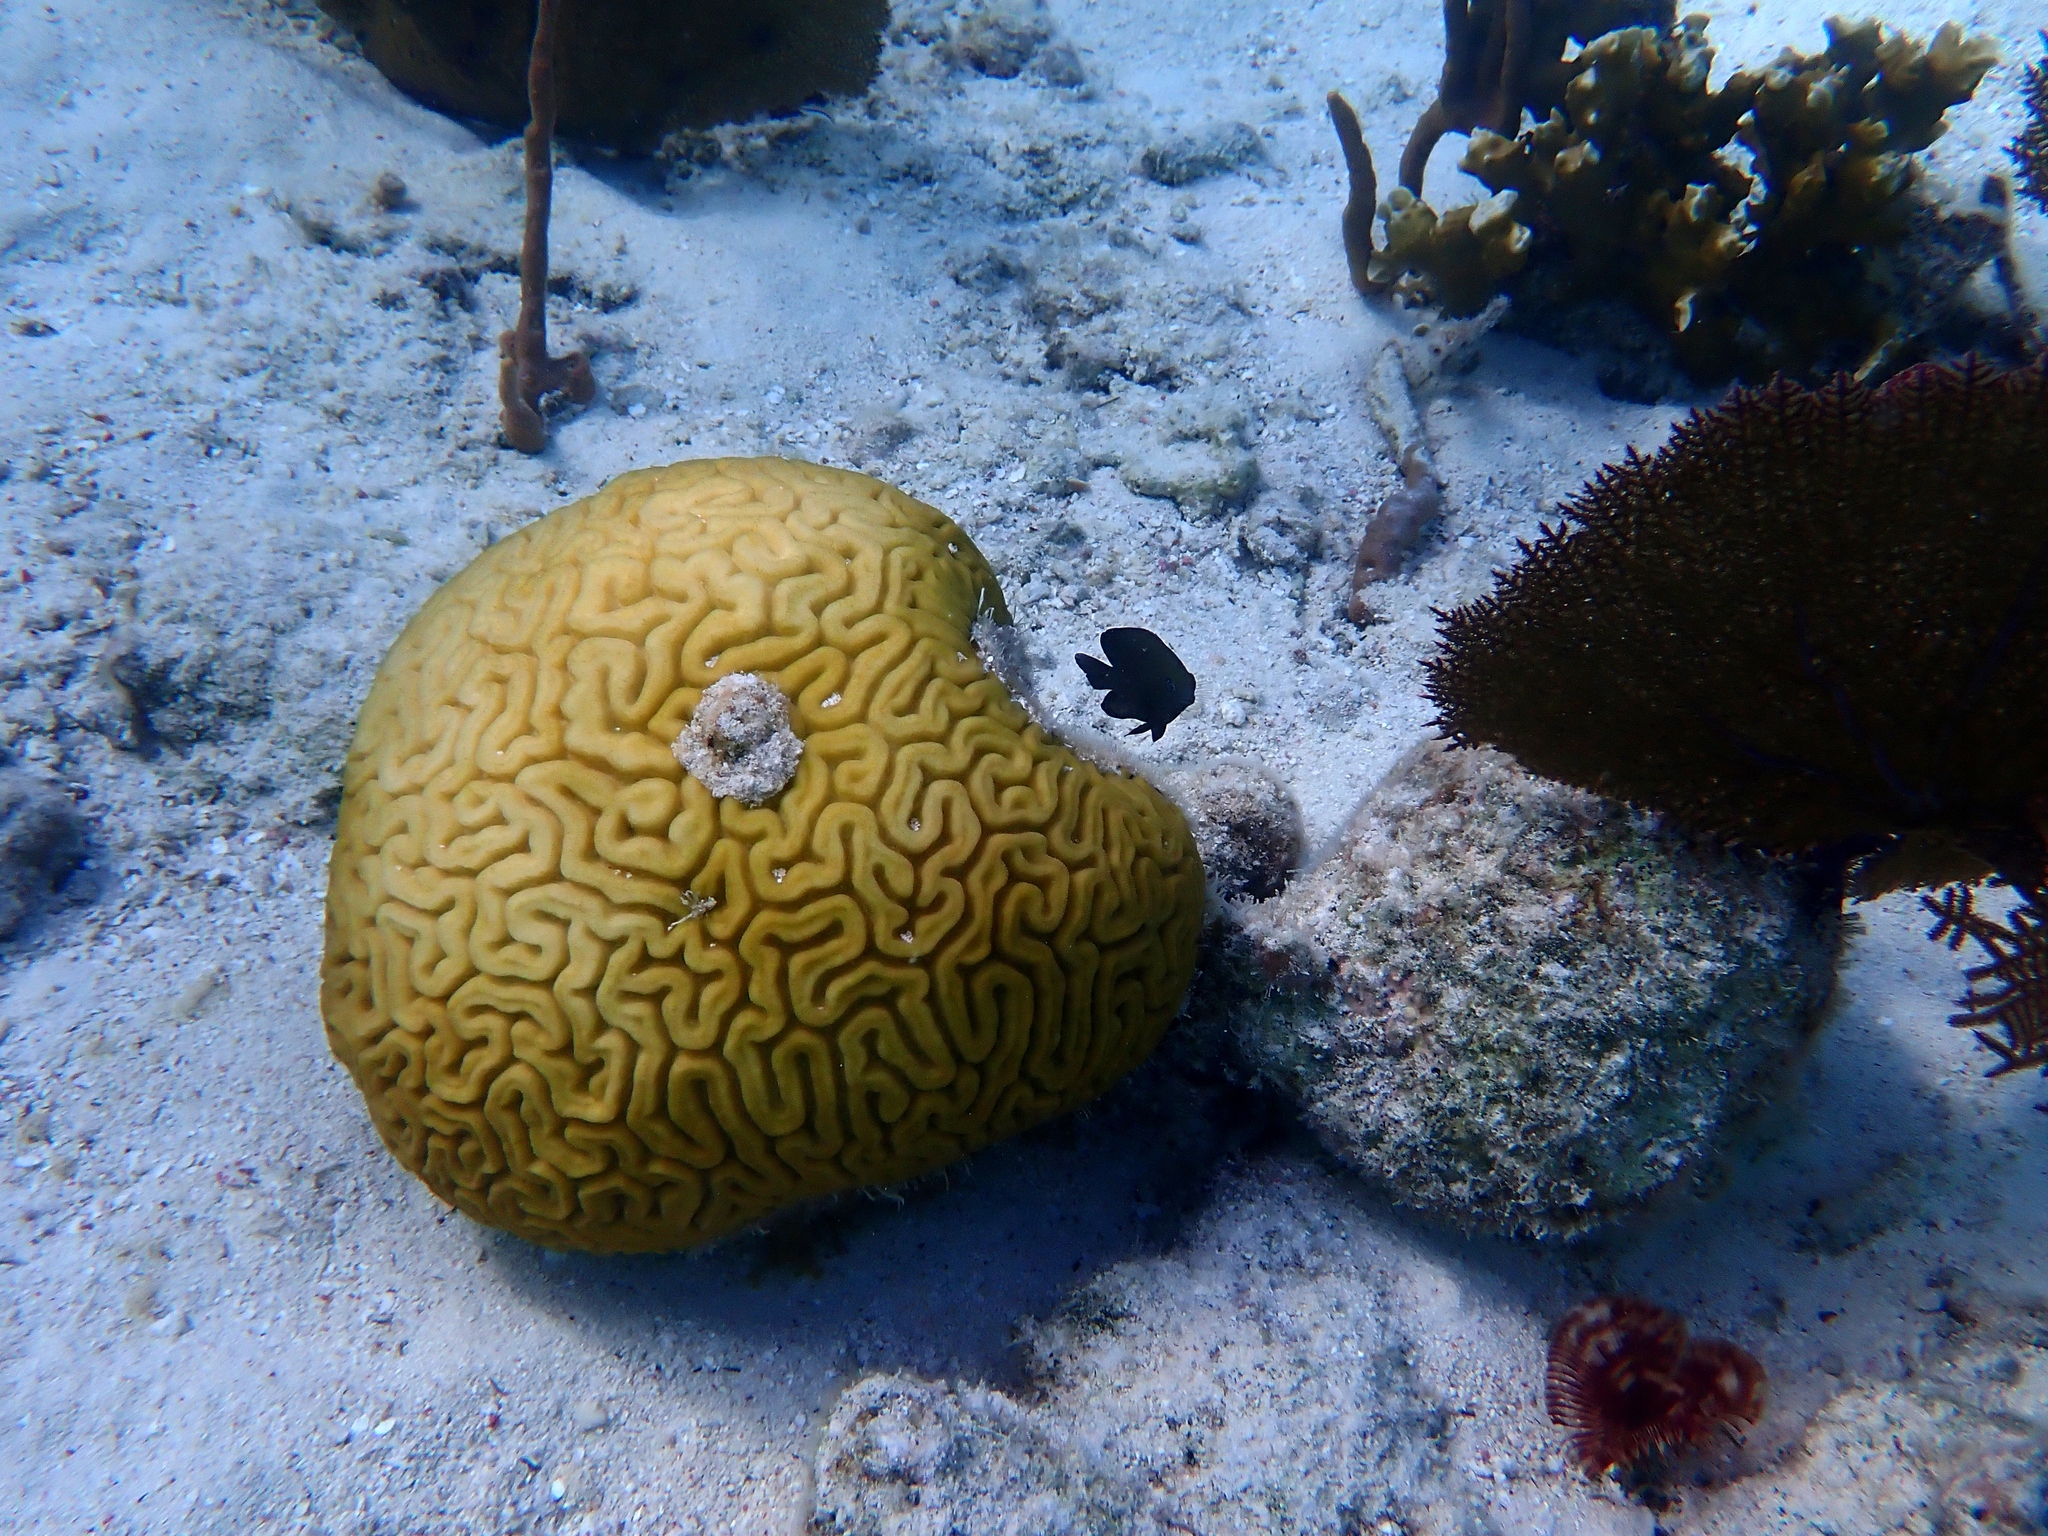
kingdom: Animalia
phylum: Cnidaria
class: Anthozoa
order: Scleractinia
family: Faviidae
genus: Diploria
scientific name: Diploria labyrinthiformis
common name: Grooved brain coral
